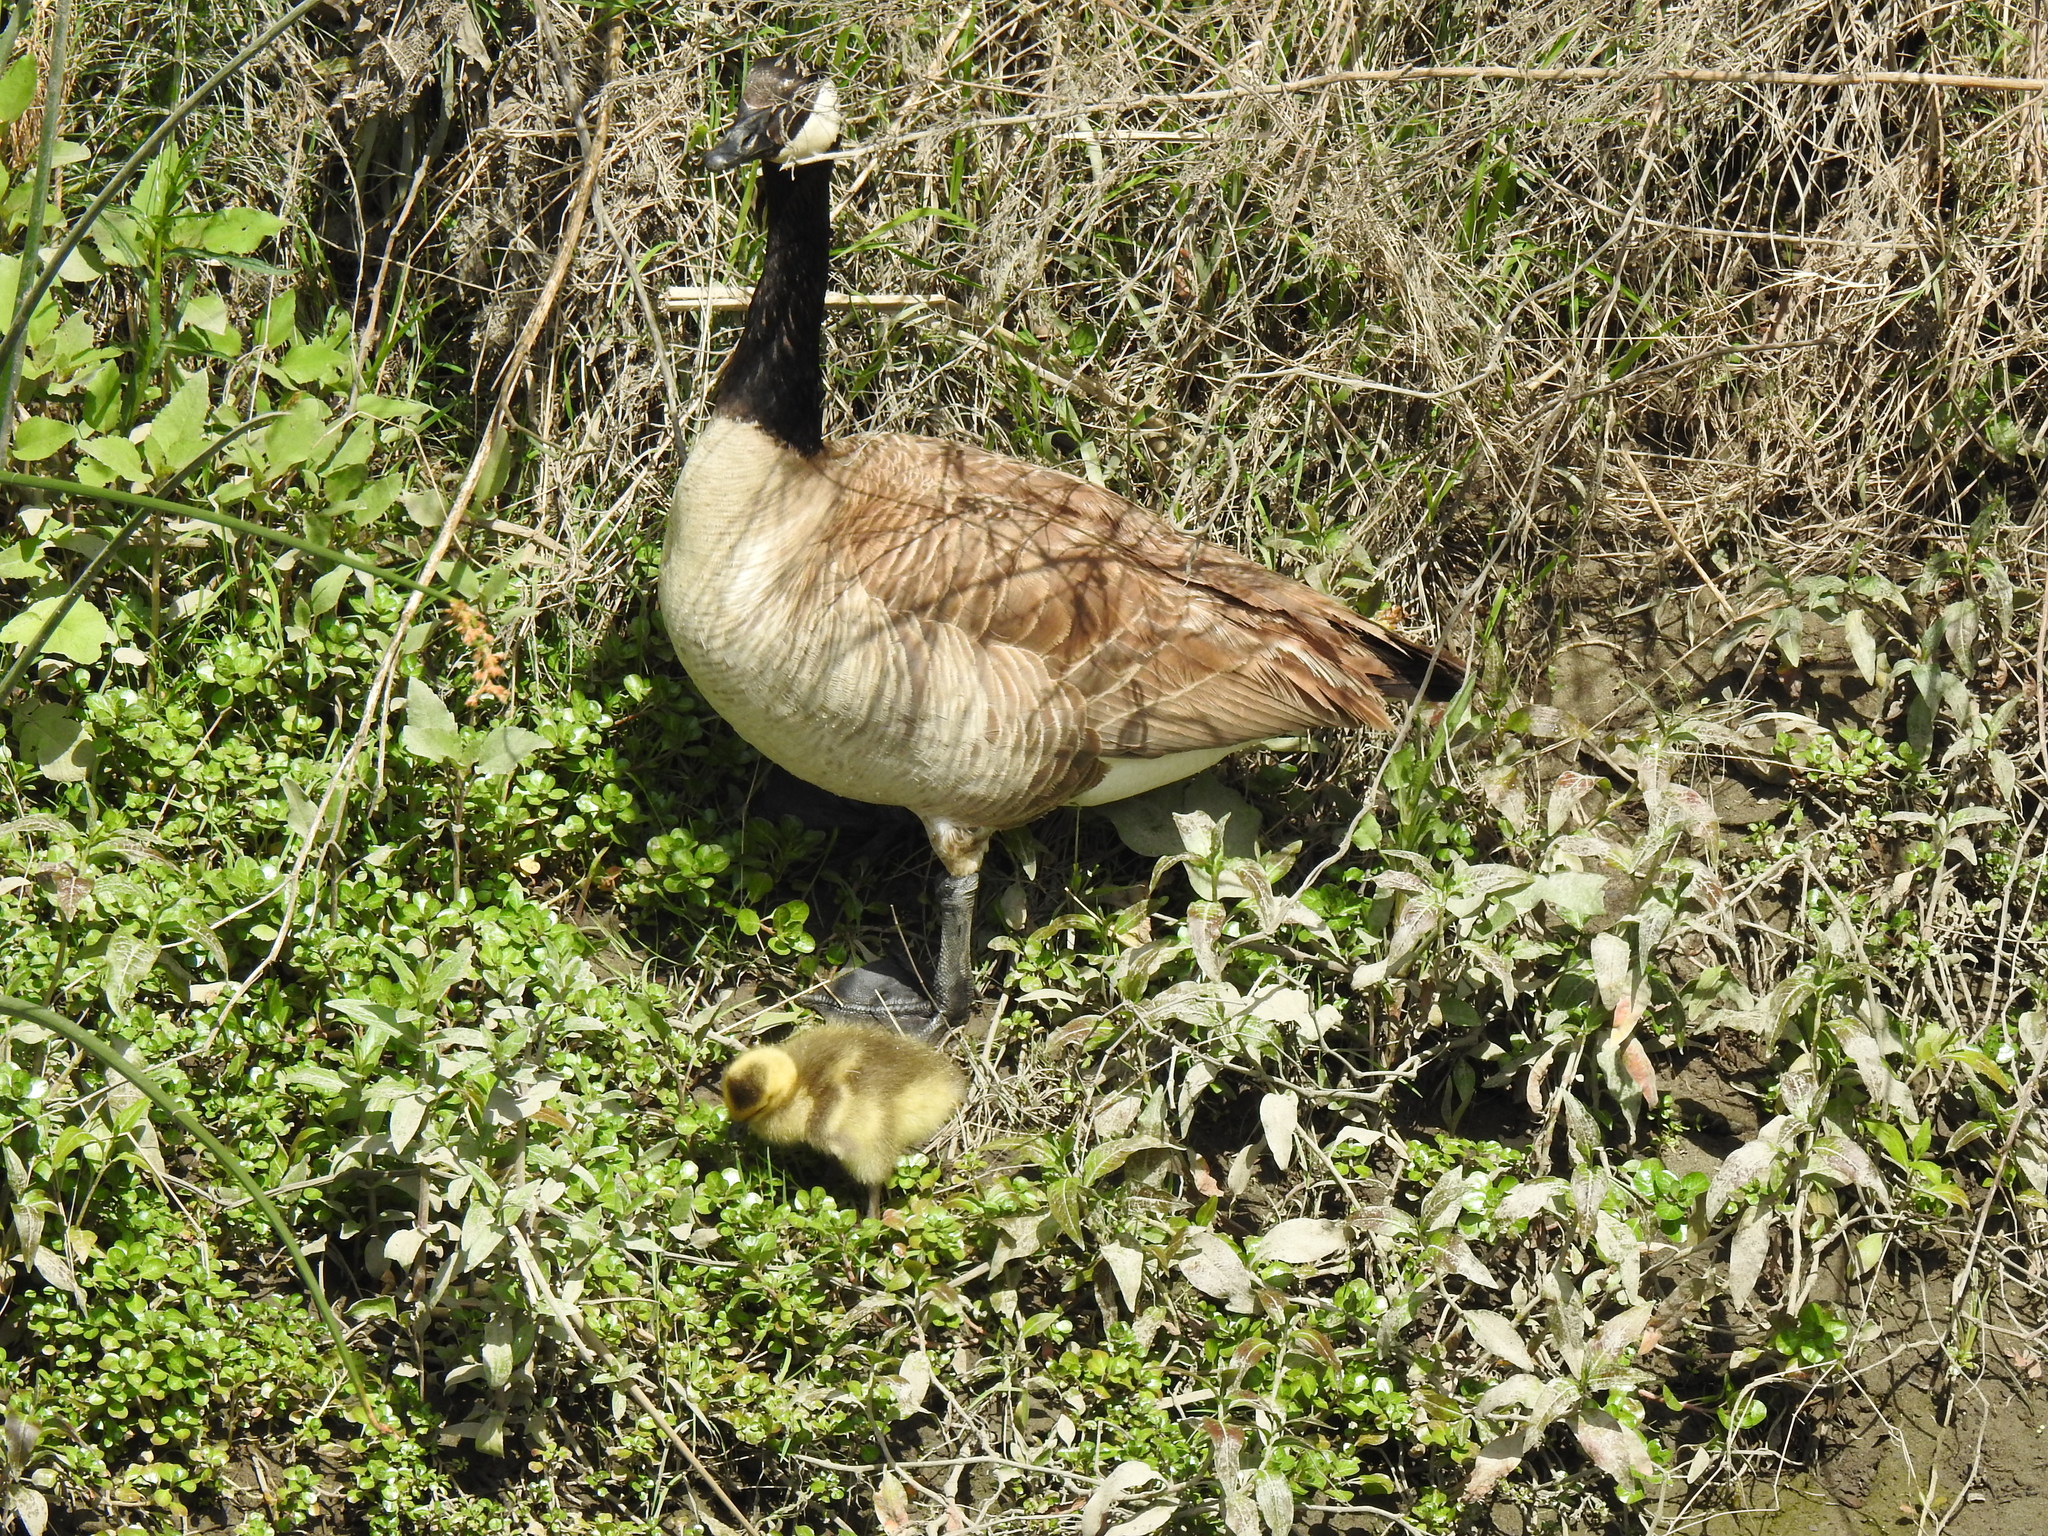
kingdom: Animalia
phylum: Chordata
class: Aves
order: Anseriformes
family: Anatidae
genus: Branta
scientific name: Branta canadensis
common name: Canada goose
